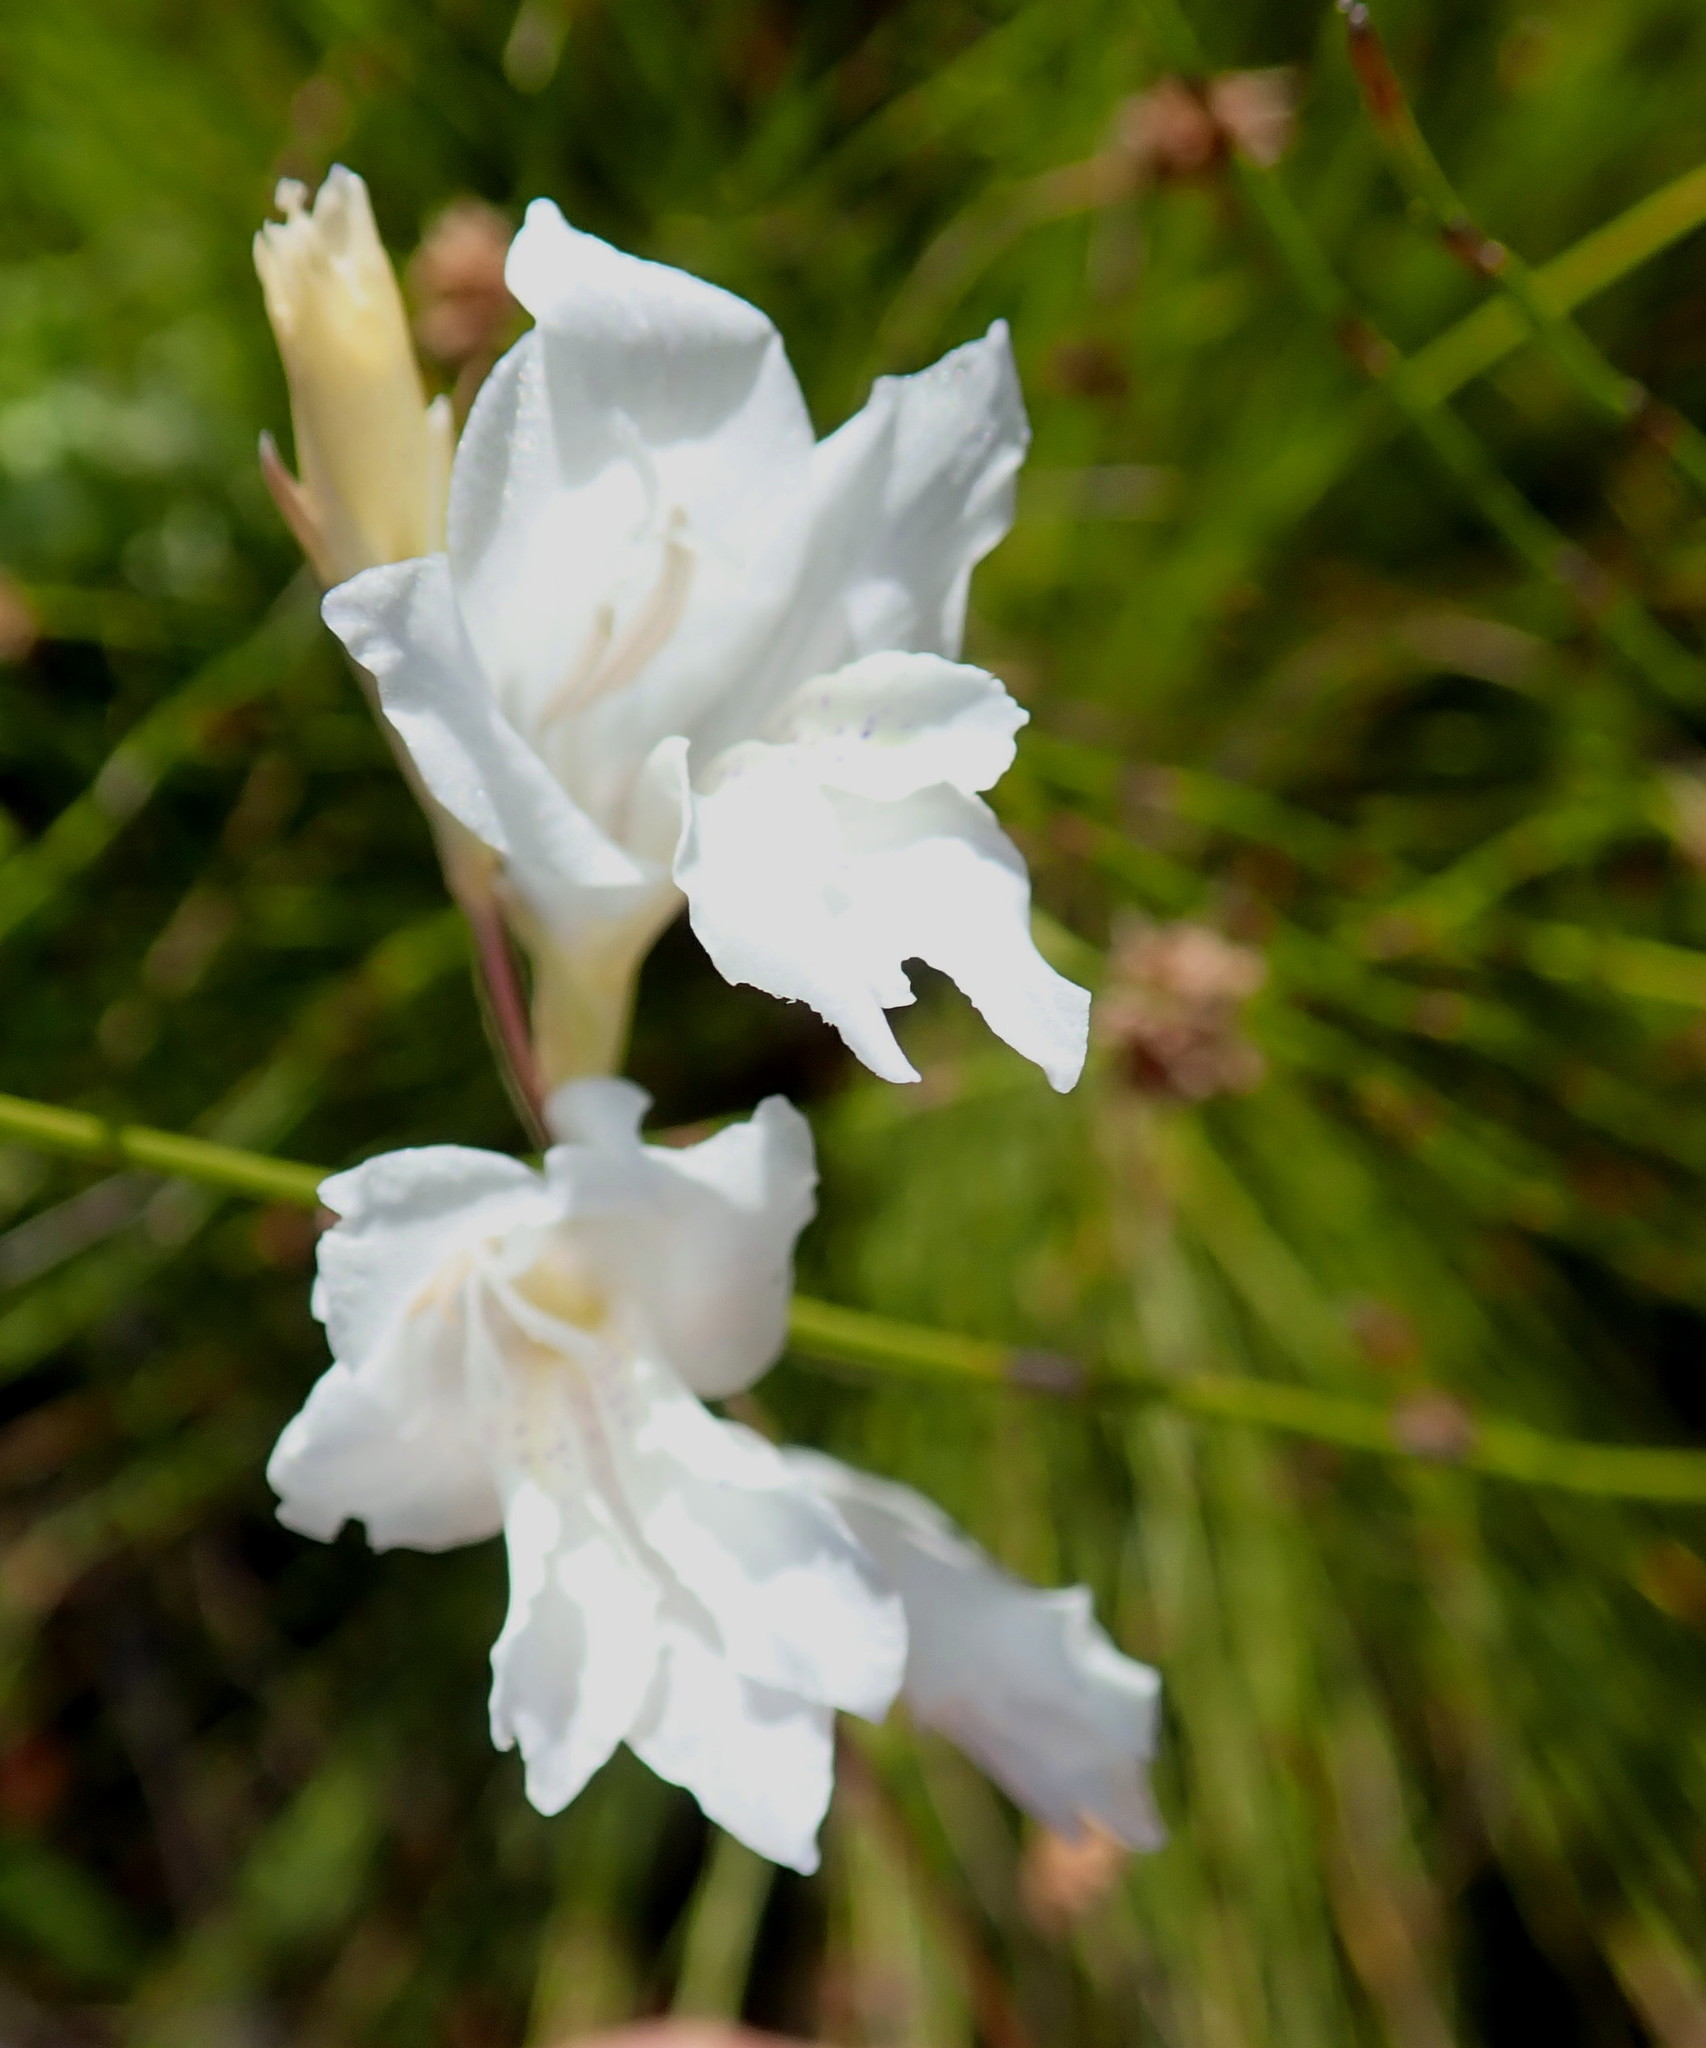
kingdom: Plantae
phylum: Tracheophyta
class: Liliopsida
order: Asparagales
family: Iridaceae
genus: Gladiolus
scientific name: Gladiolus vaginatus
